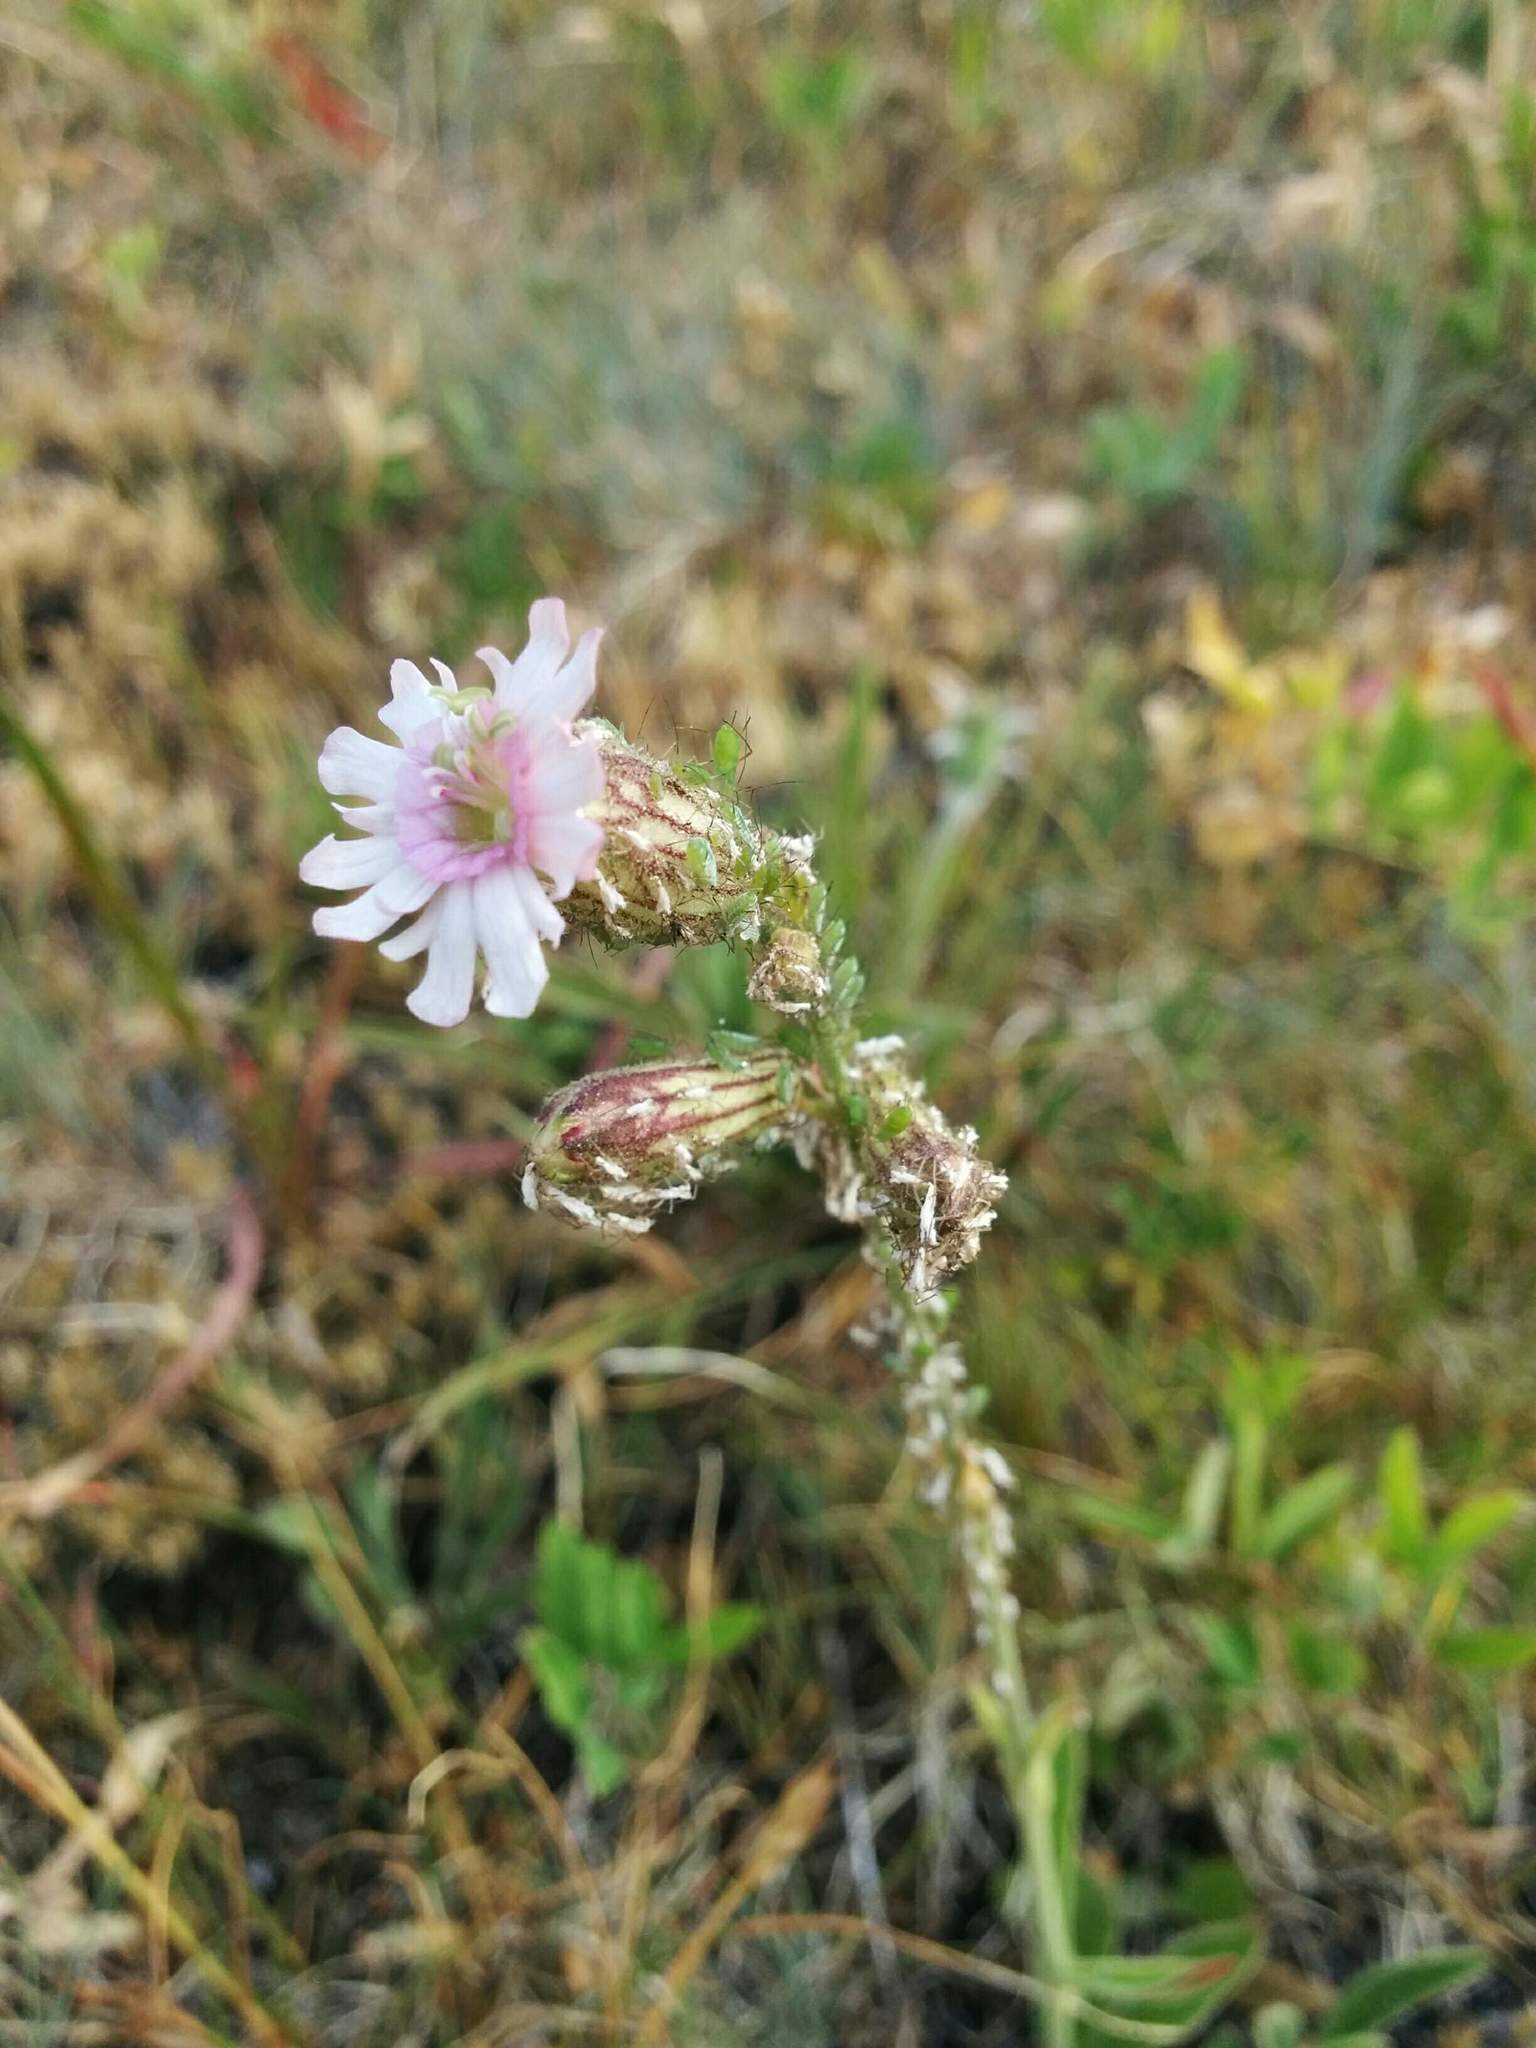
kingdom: Plantae
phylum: Tracheophyta
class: Magnoliopsida
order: Caryophyllales
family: Caryophyllaceae
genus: Silene
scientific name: Silene parryi
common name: Parry's campion
